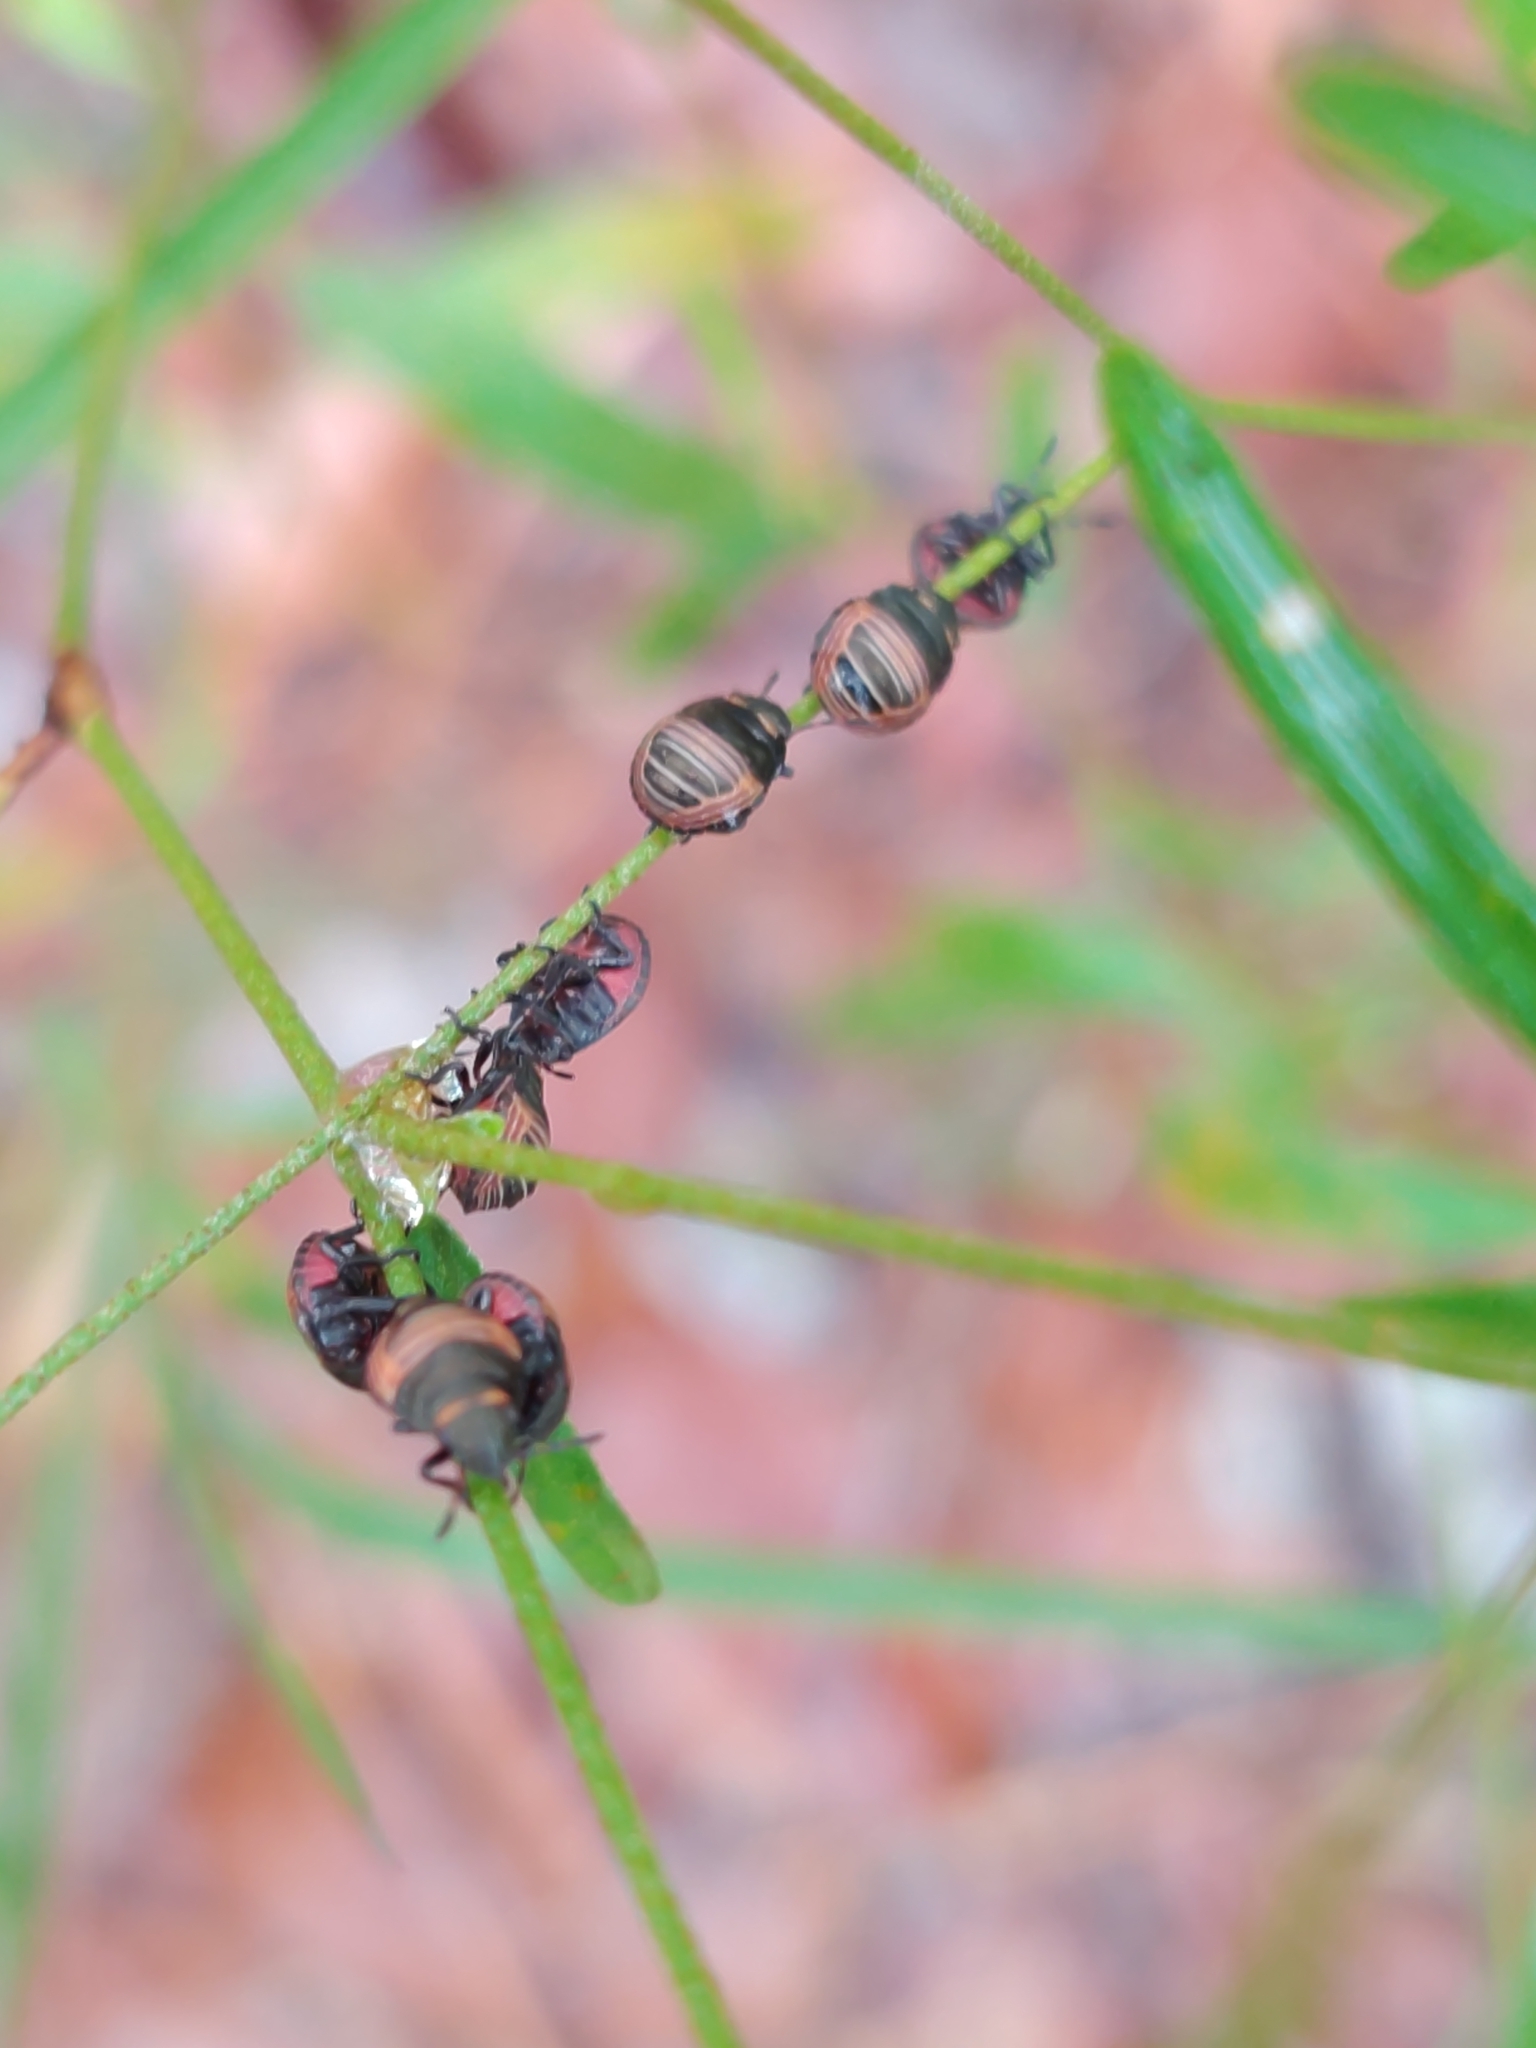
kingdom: Animalia
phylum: Arthropoda
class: Insecta
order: Hemiptera
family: Scutelleridae
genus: Orsilochides
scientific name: Orsilochides guttata
